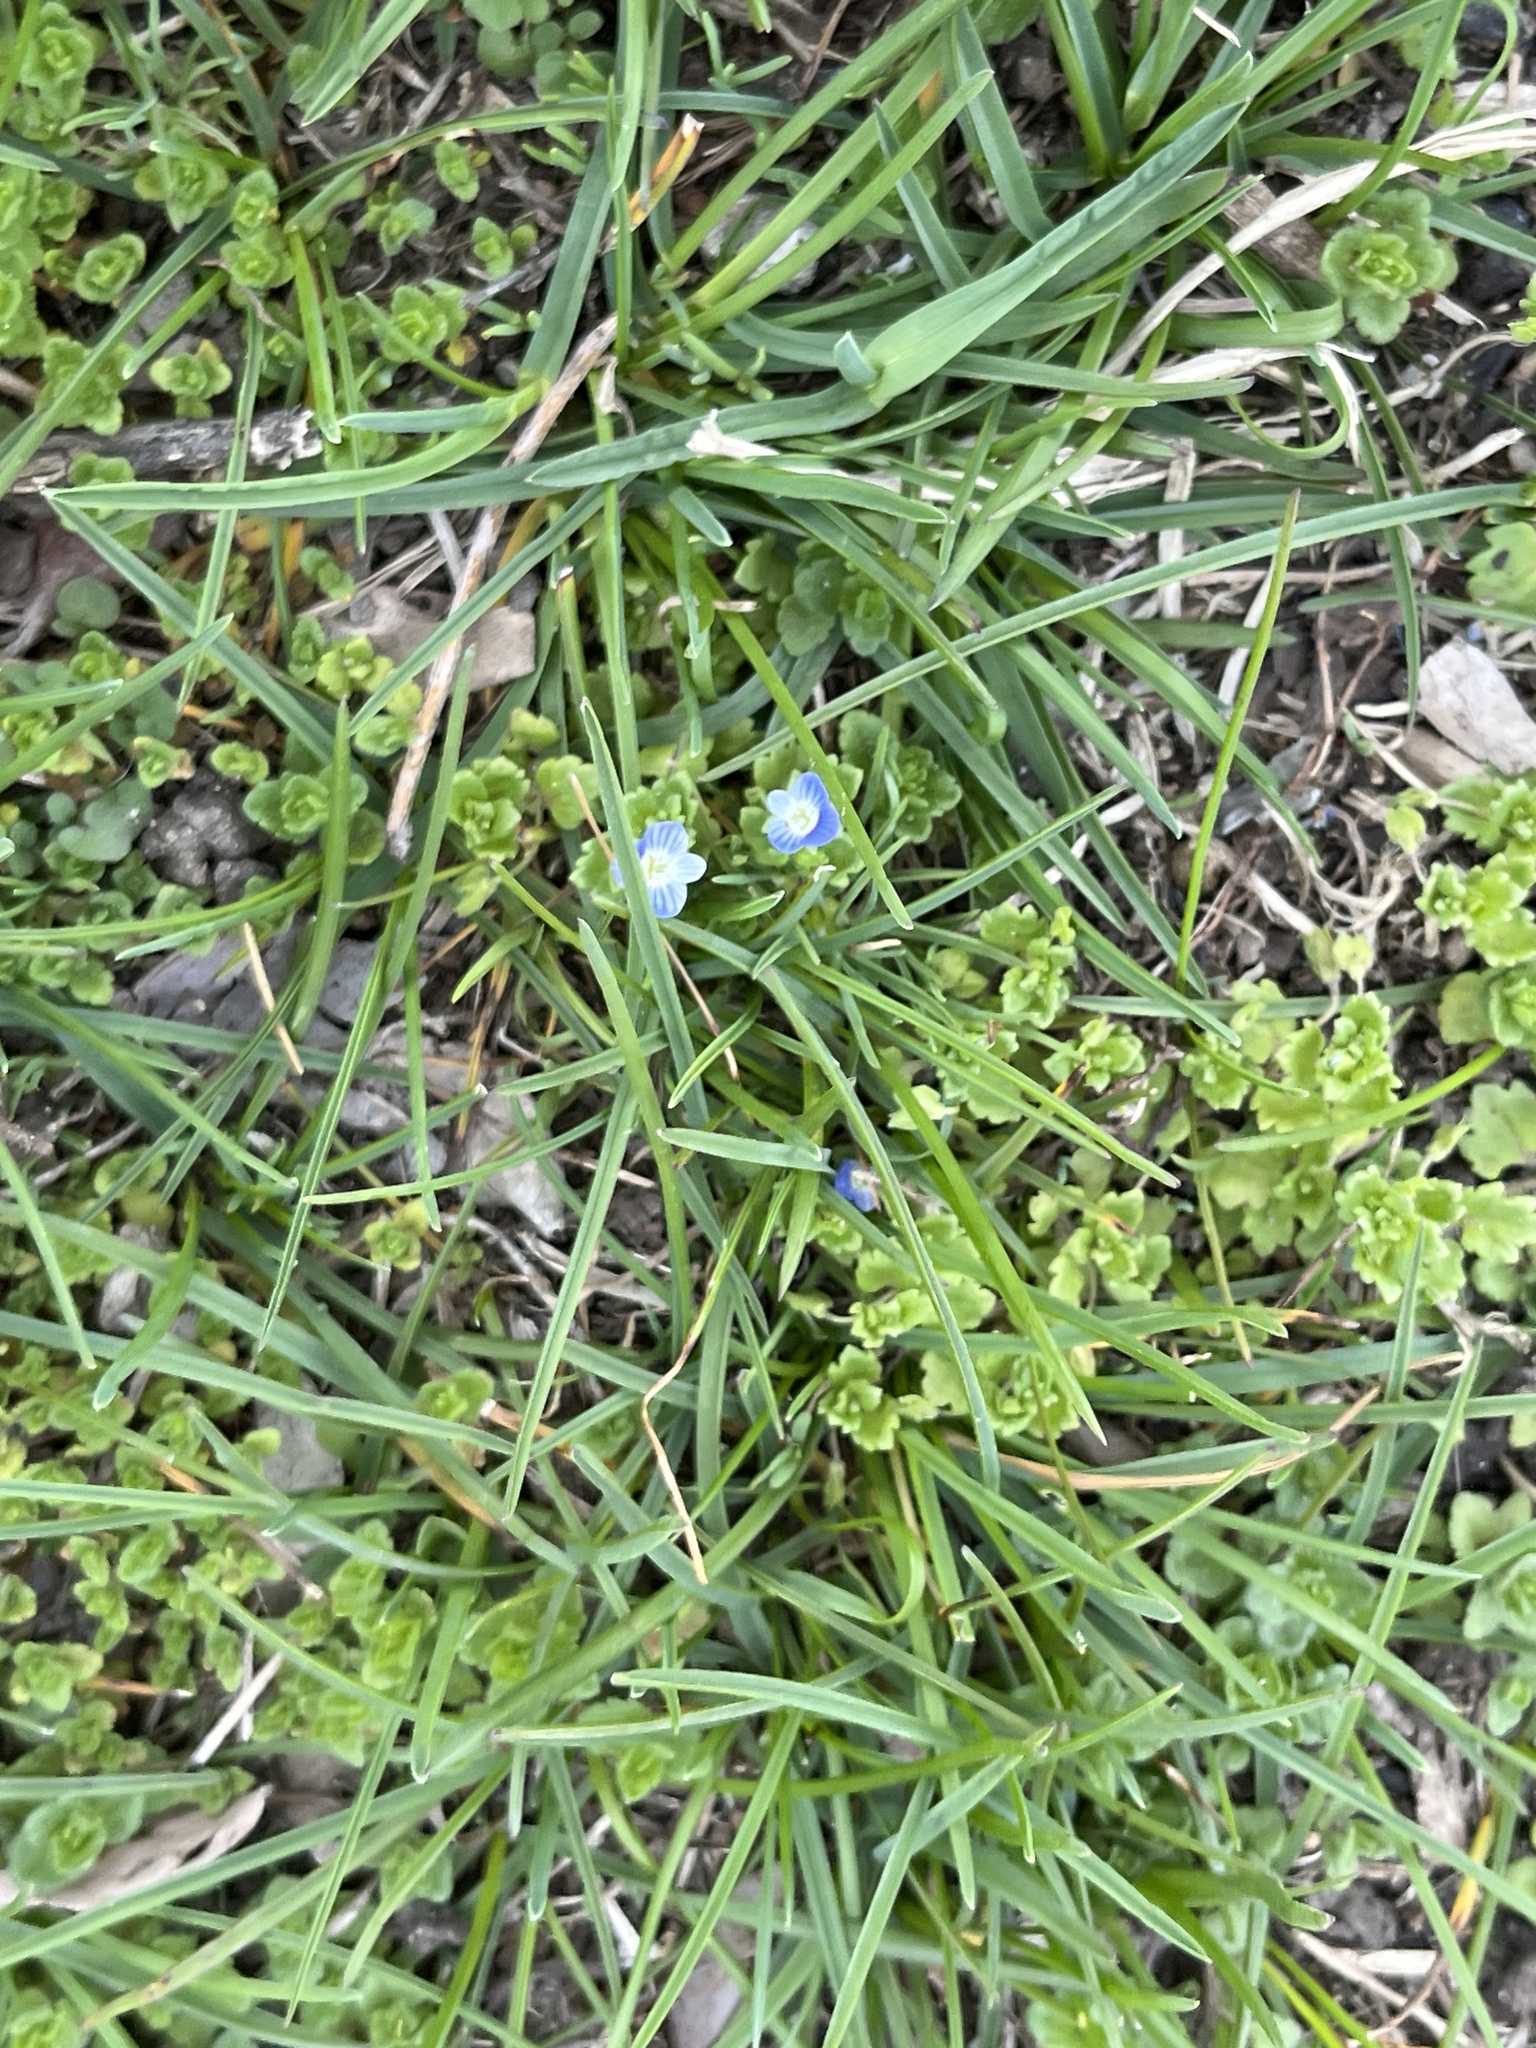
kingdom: Plantae
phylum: Tracheophyta
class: Magnoliopsida
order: Lamiales
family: Plantaginaceae
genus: Veronica
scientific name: Veronica polita
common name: Grey field-speedwell
